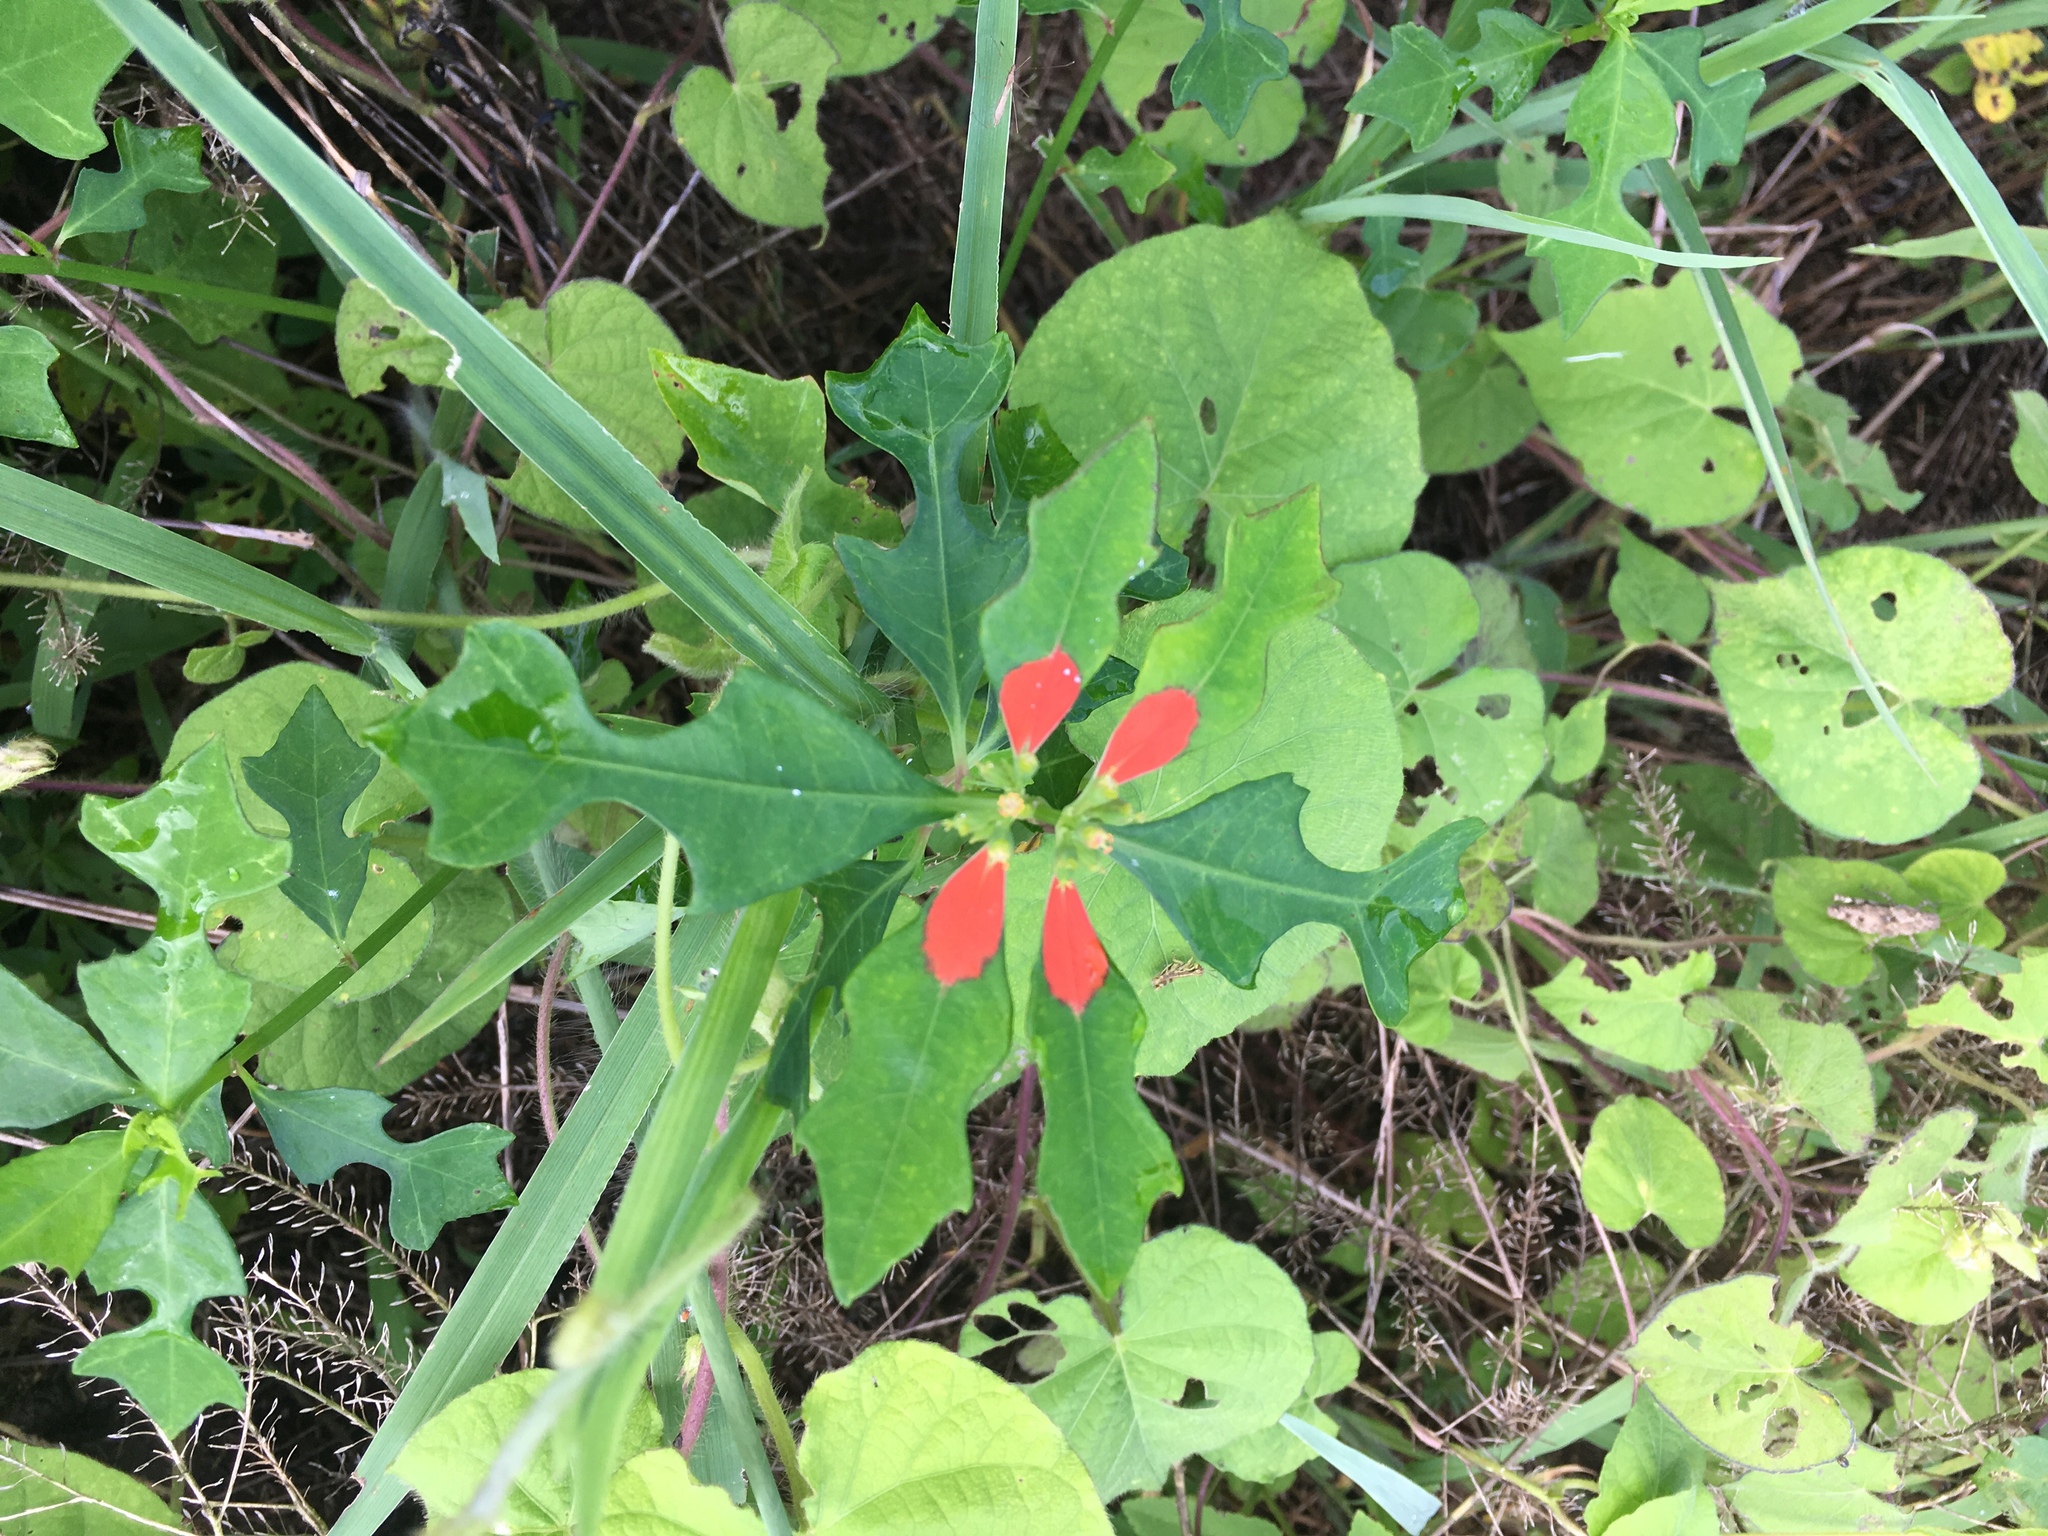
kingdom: Plantae
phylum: Tracheophyta
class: Magnoliopsida
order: Malpighiales
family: Euphorbiaceae
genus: Euphorbia
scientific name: Euphorbia heterophylla
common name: Mexican fireplant
